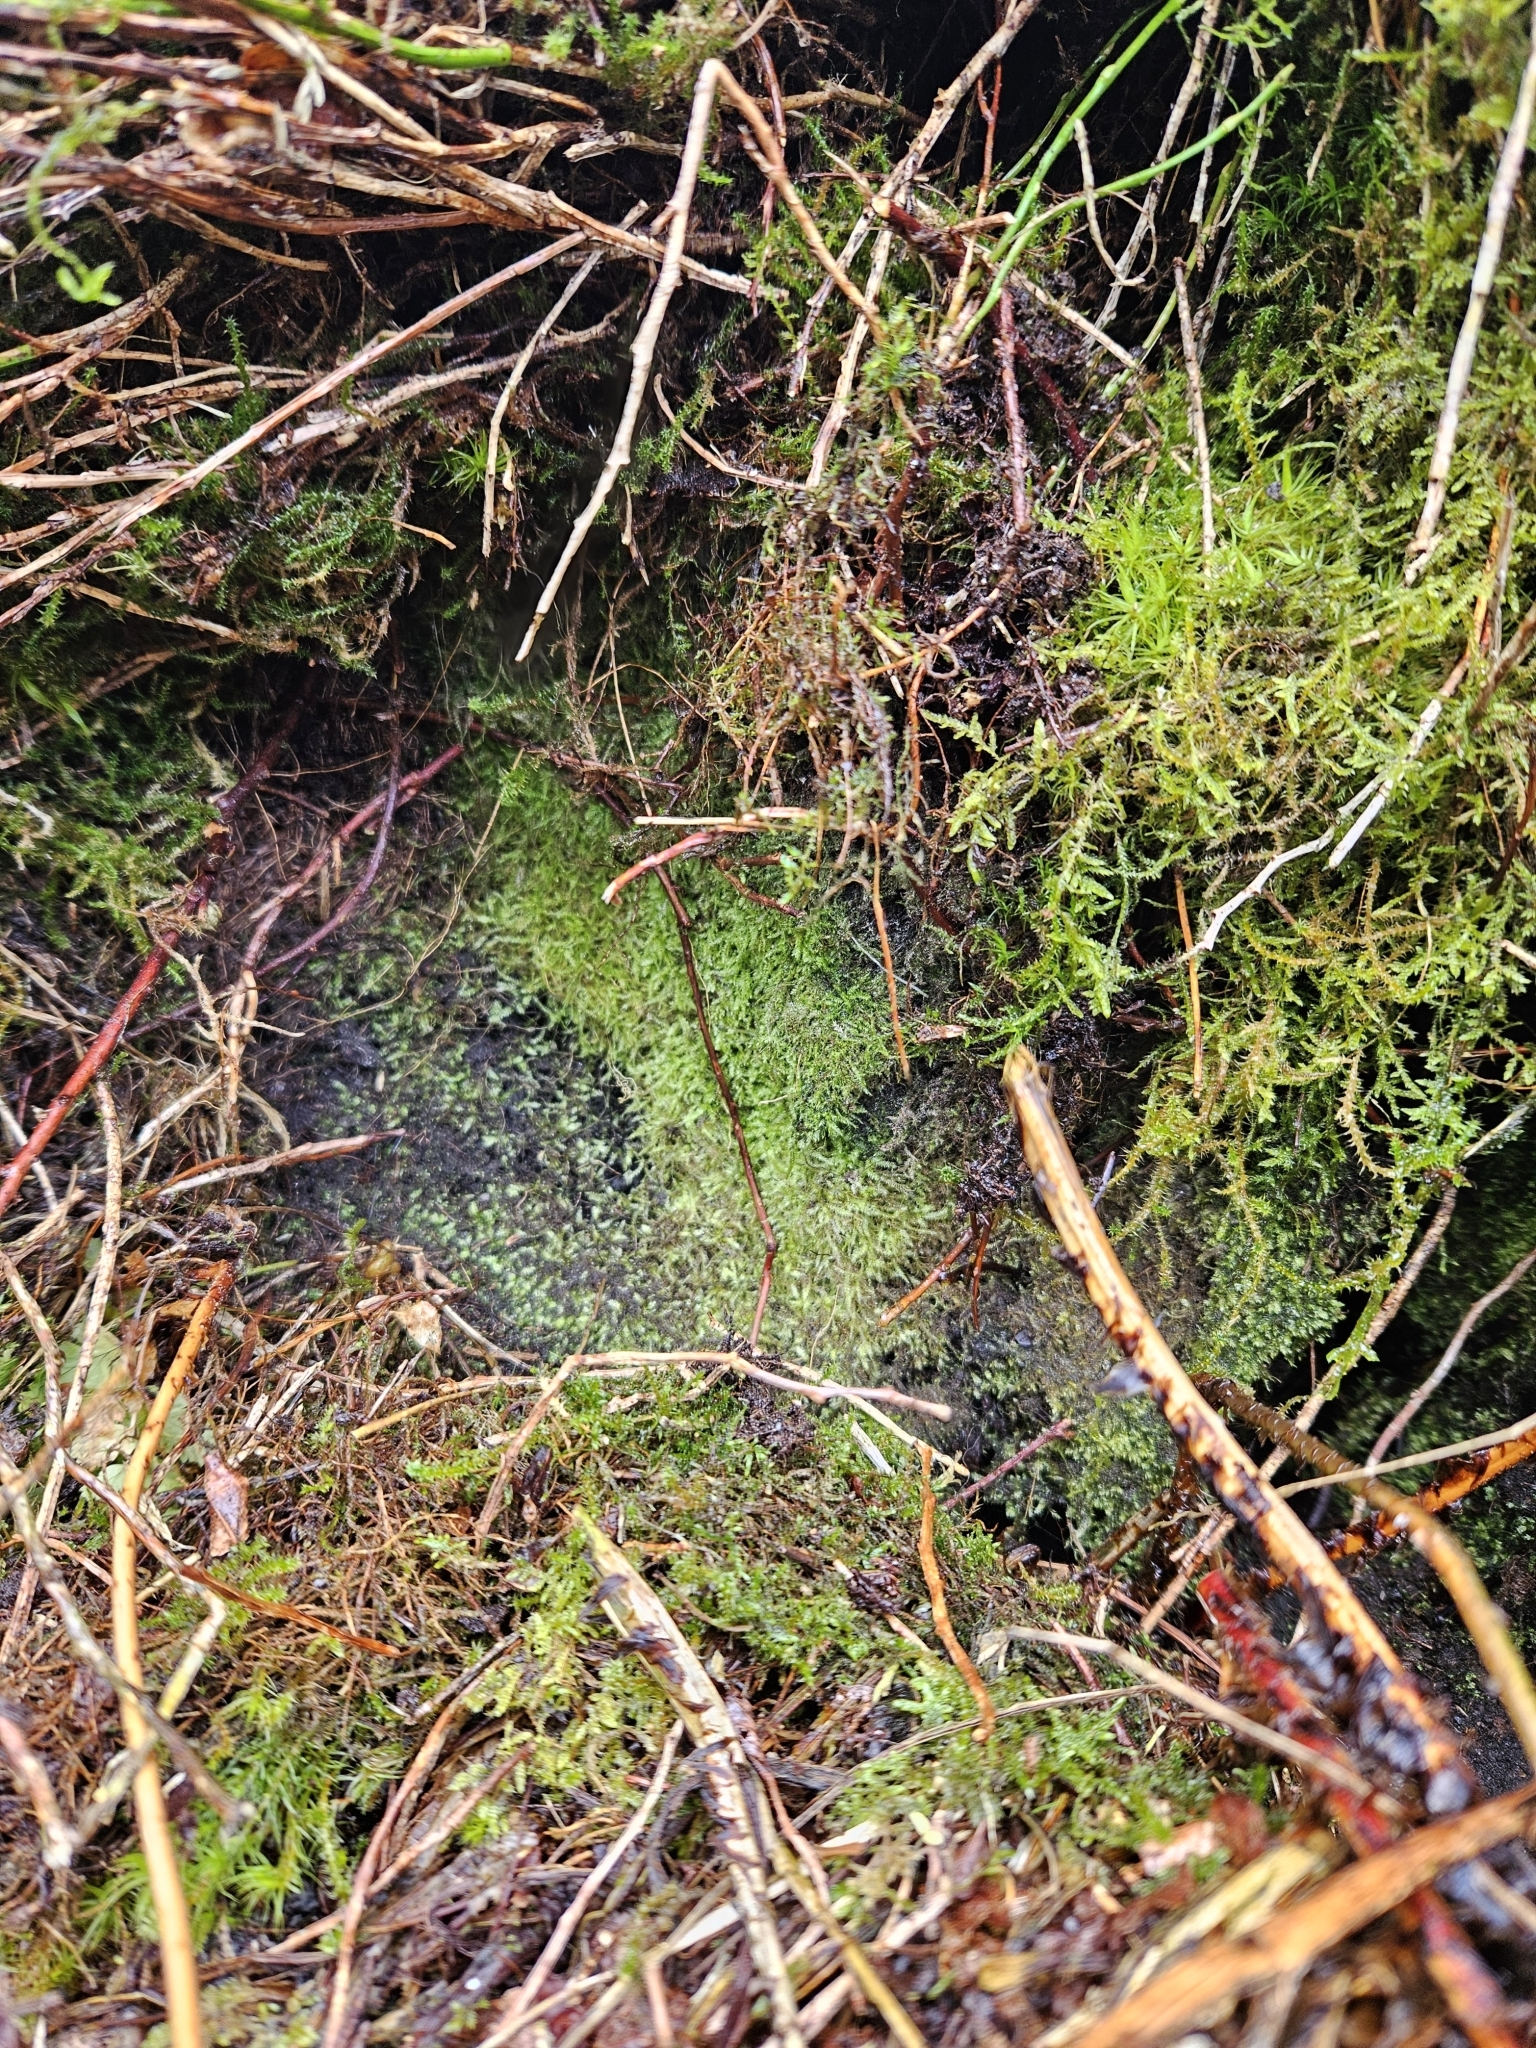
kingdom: Plantae
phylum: Bryophyta
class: Bryopsida
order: Hypnales
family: Plagiotheciaceae
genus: Pseudotaxiphyllum
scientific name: Pseudotaxiphyllum elegans
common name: Elegant silk moss
